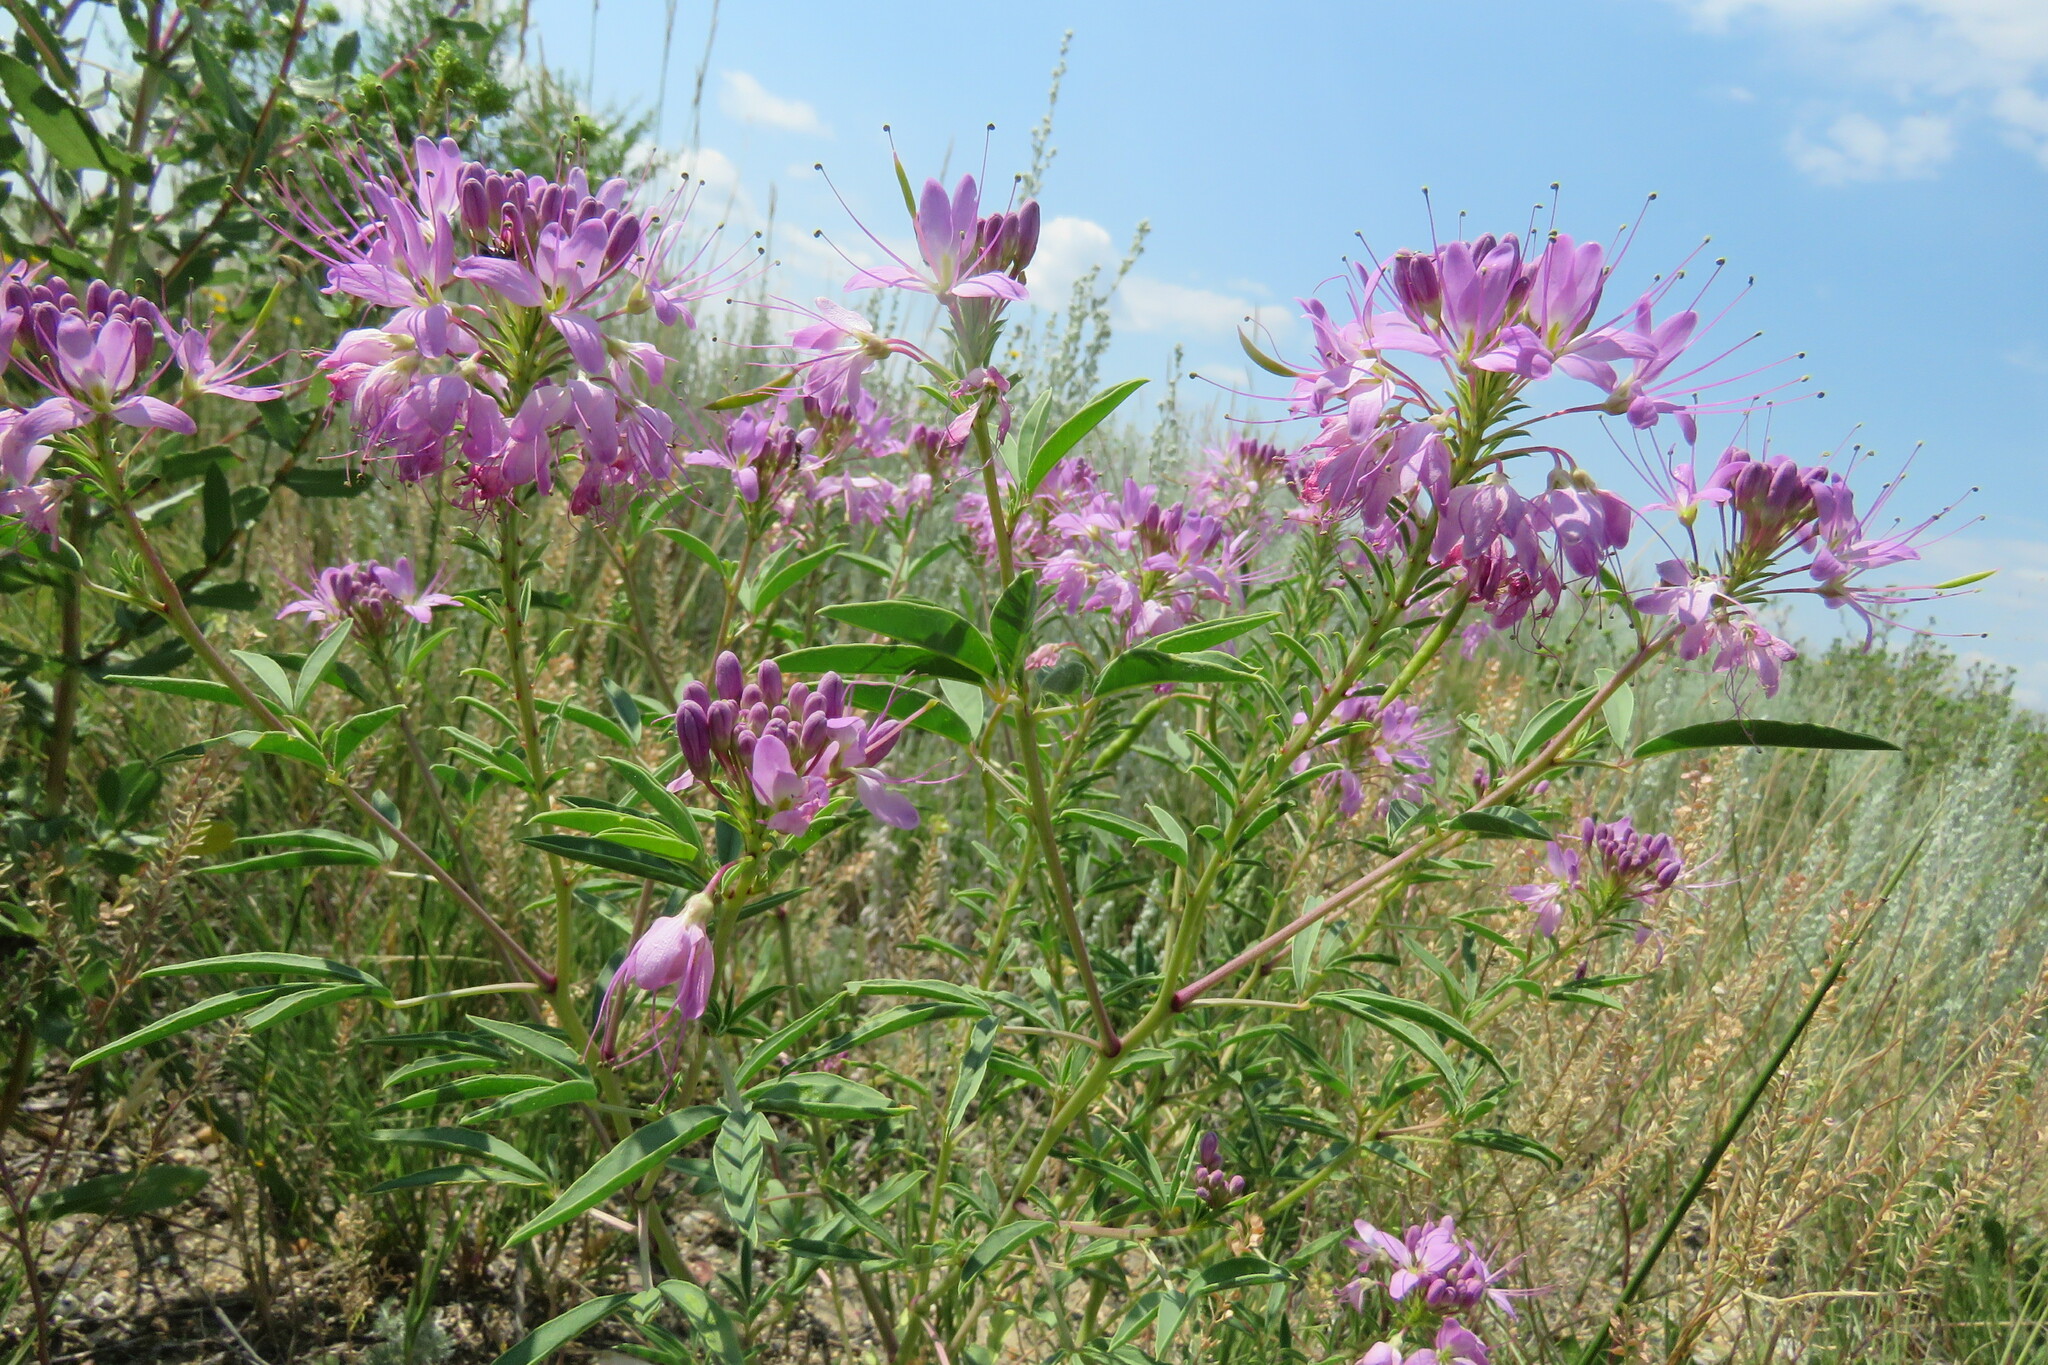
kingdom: Plantae
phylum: Tracheophyta
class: Magnoliopsida
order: Brassicales
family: Cleomaceae
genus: Cleomella
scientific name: Cleomella serrulata
